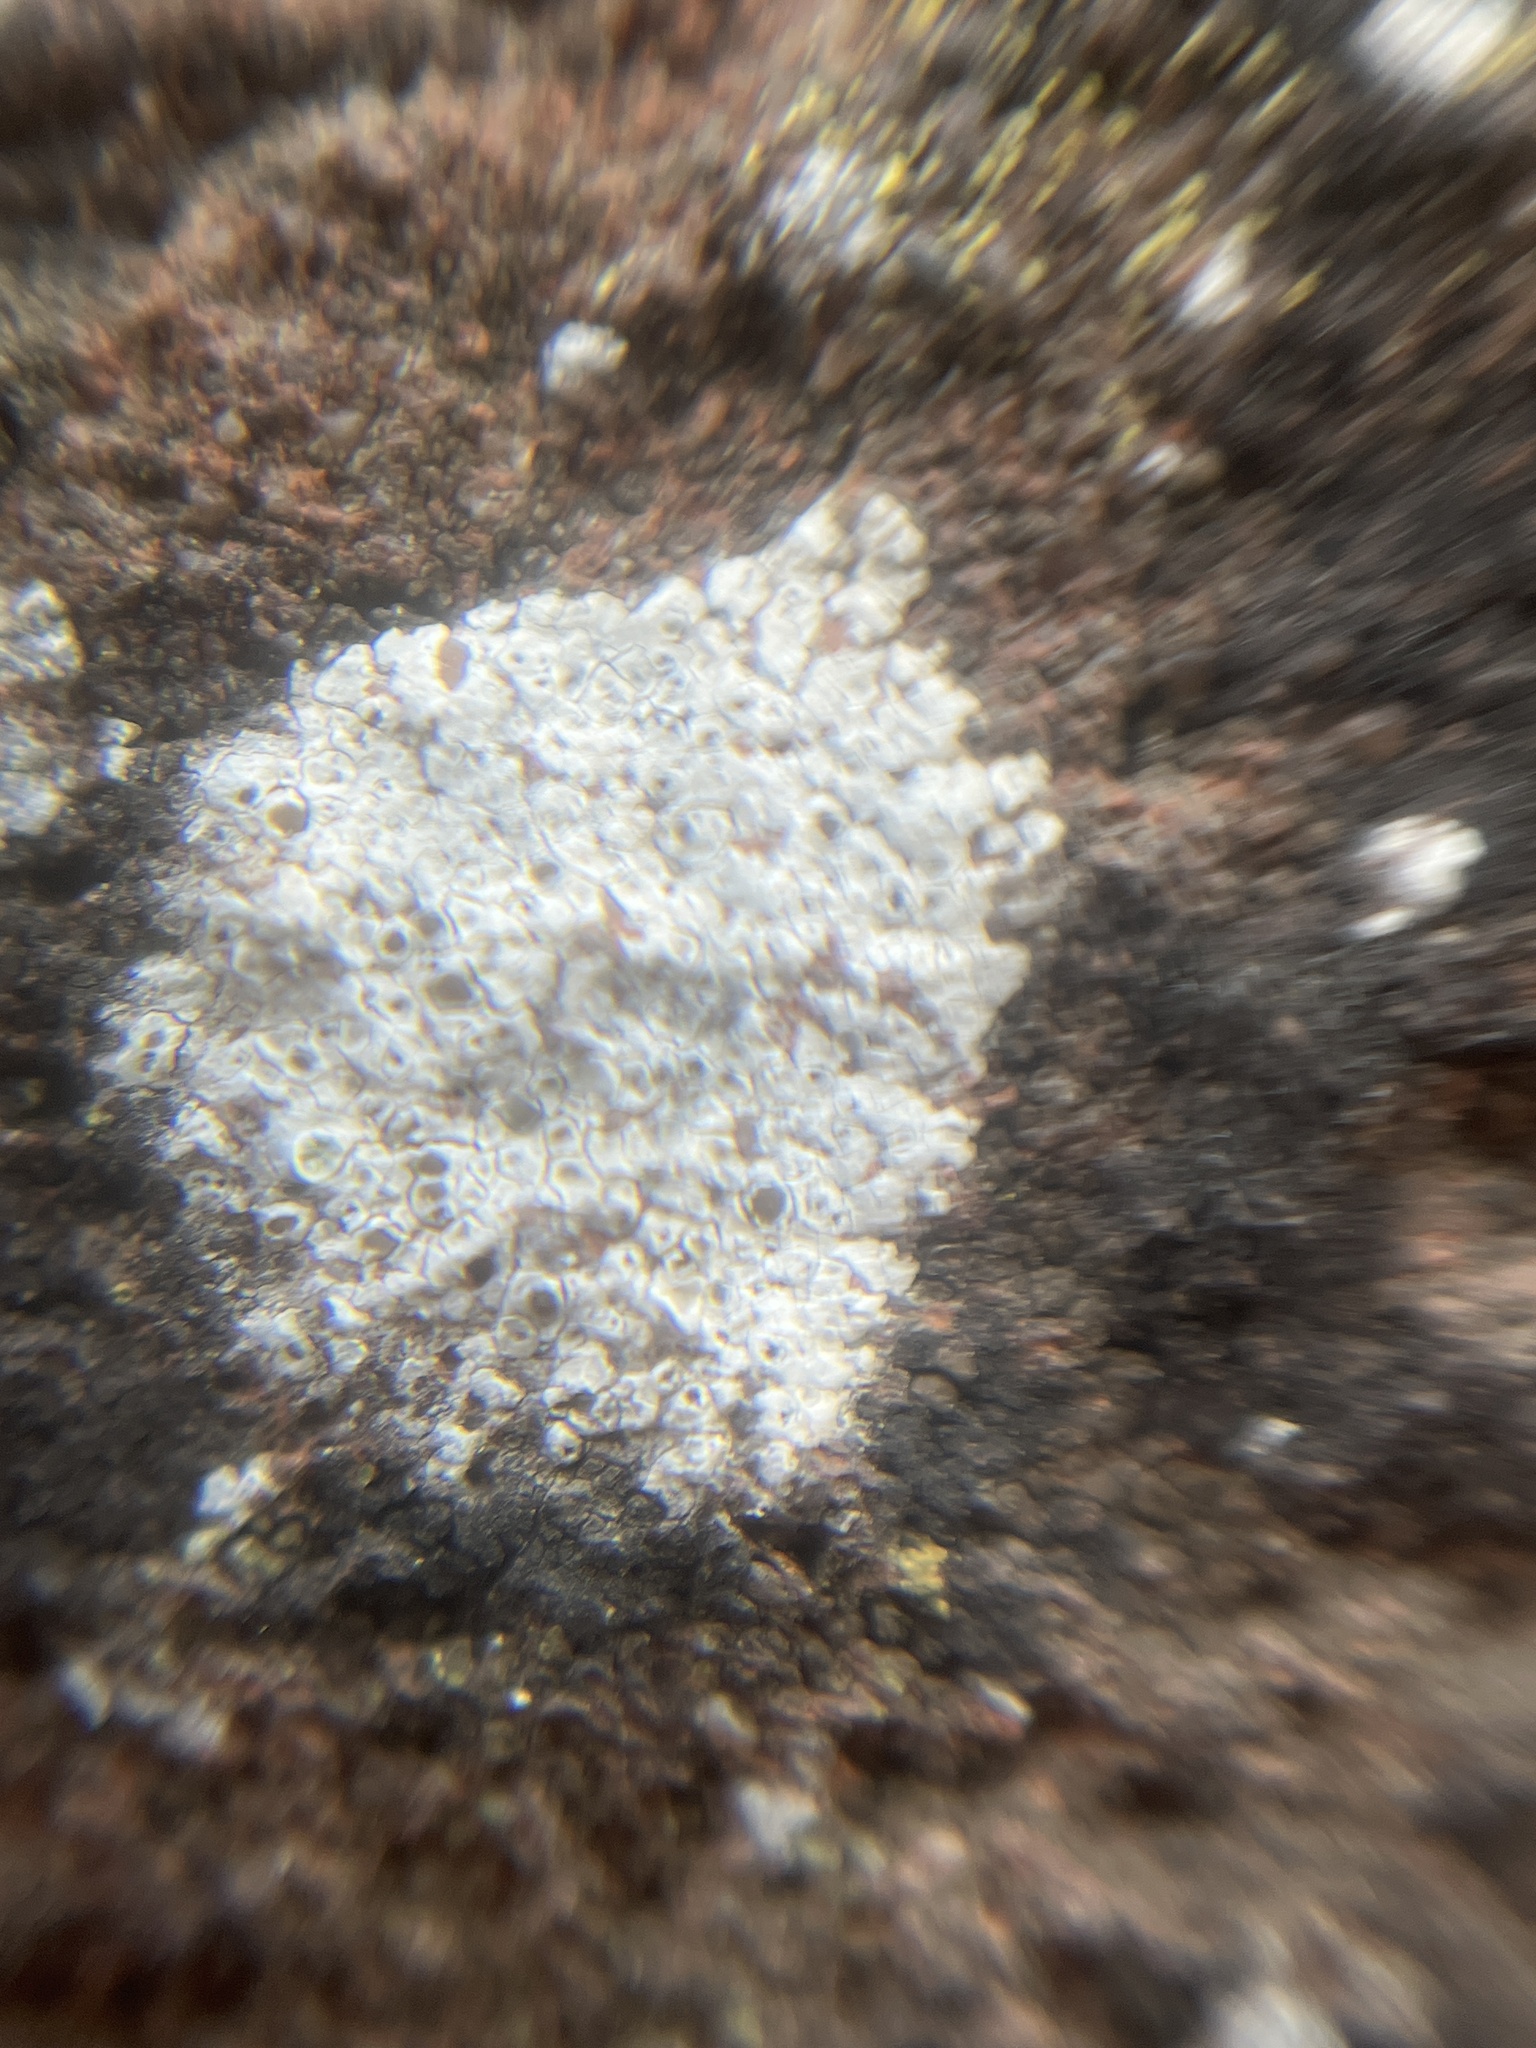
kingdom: Fungi
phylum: Ascomycota
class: Lecanoromycetes
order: Lecanorales
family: Lecanoraceae
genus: Polyozosia
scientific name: Polyozosia albescens
